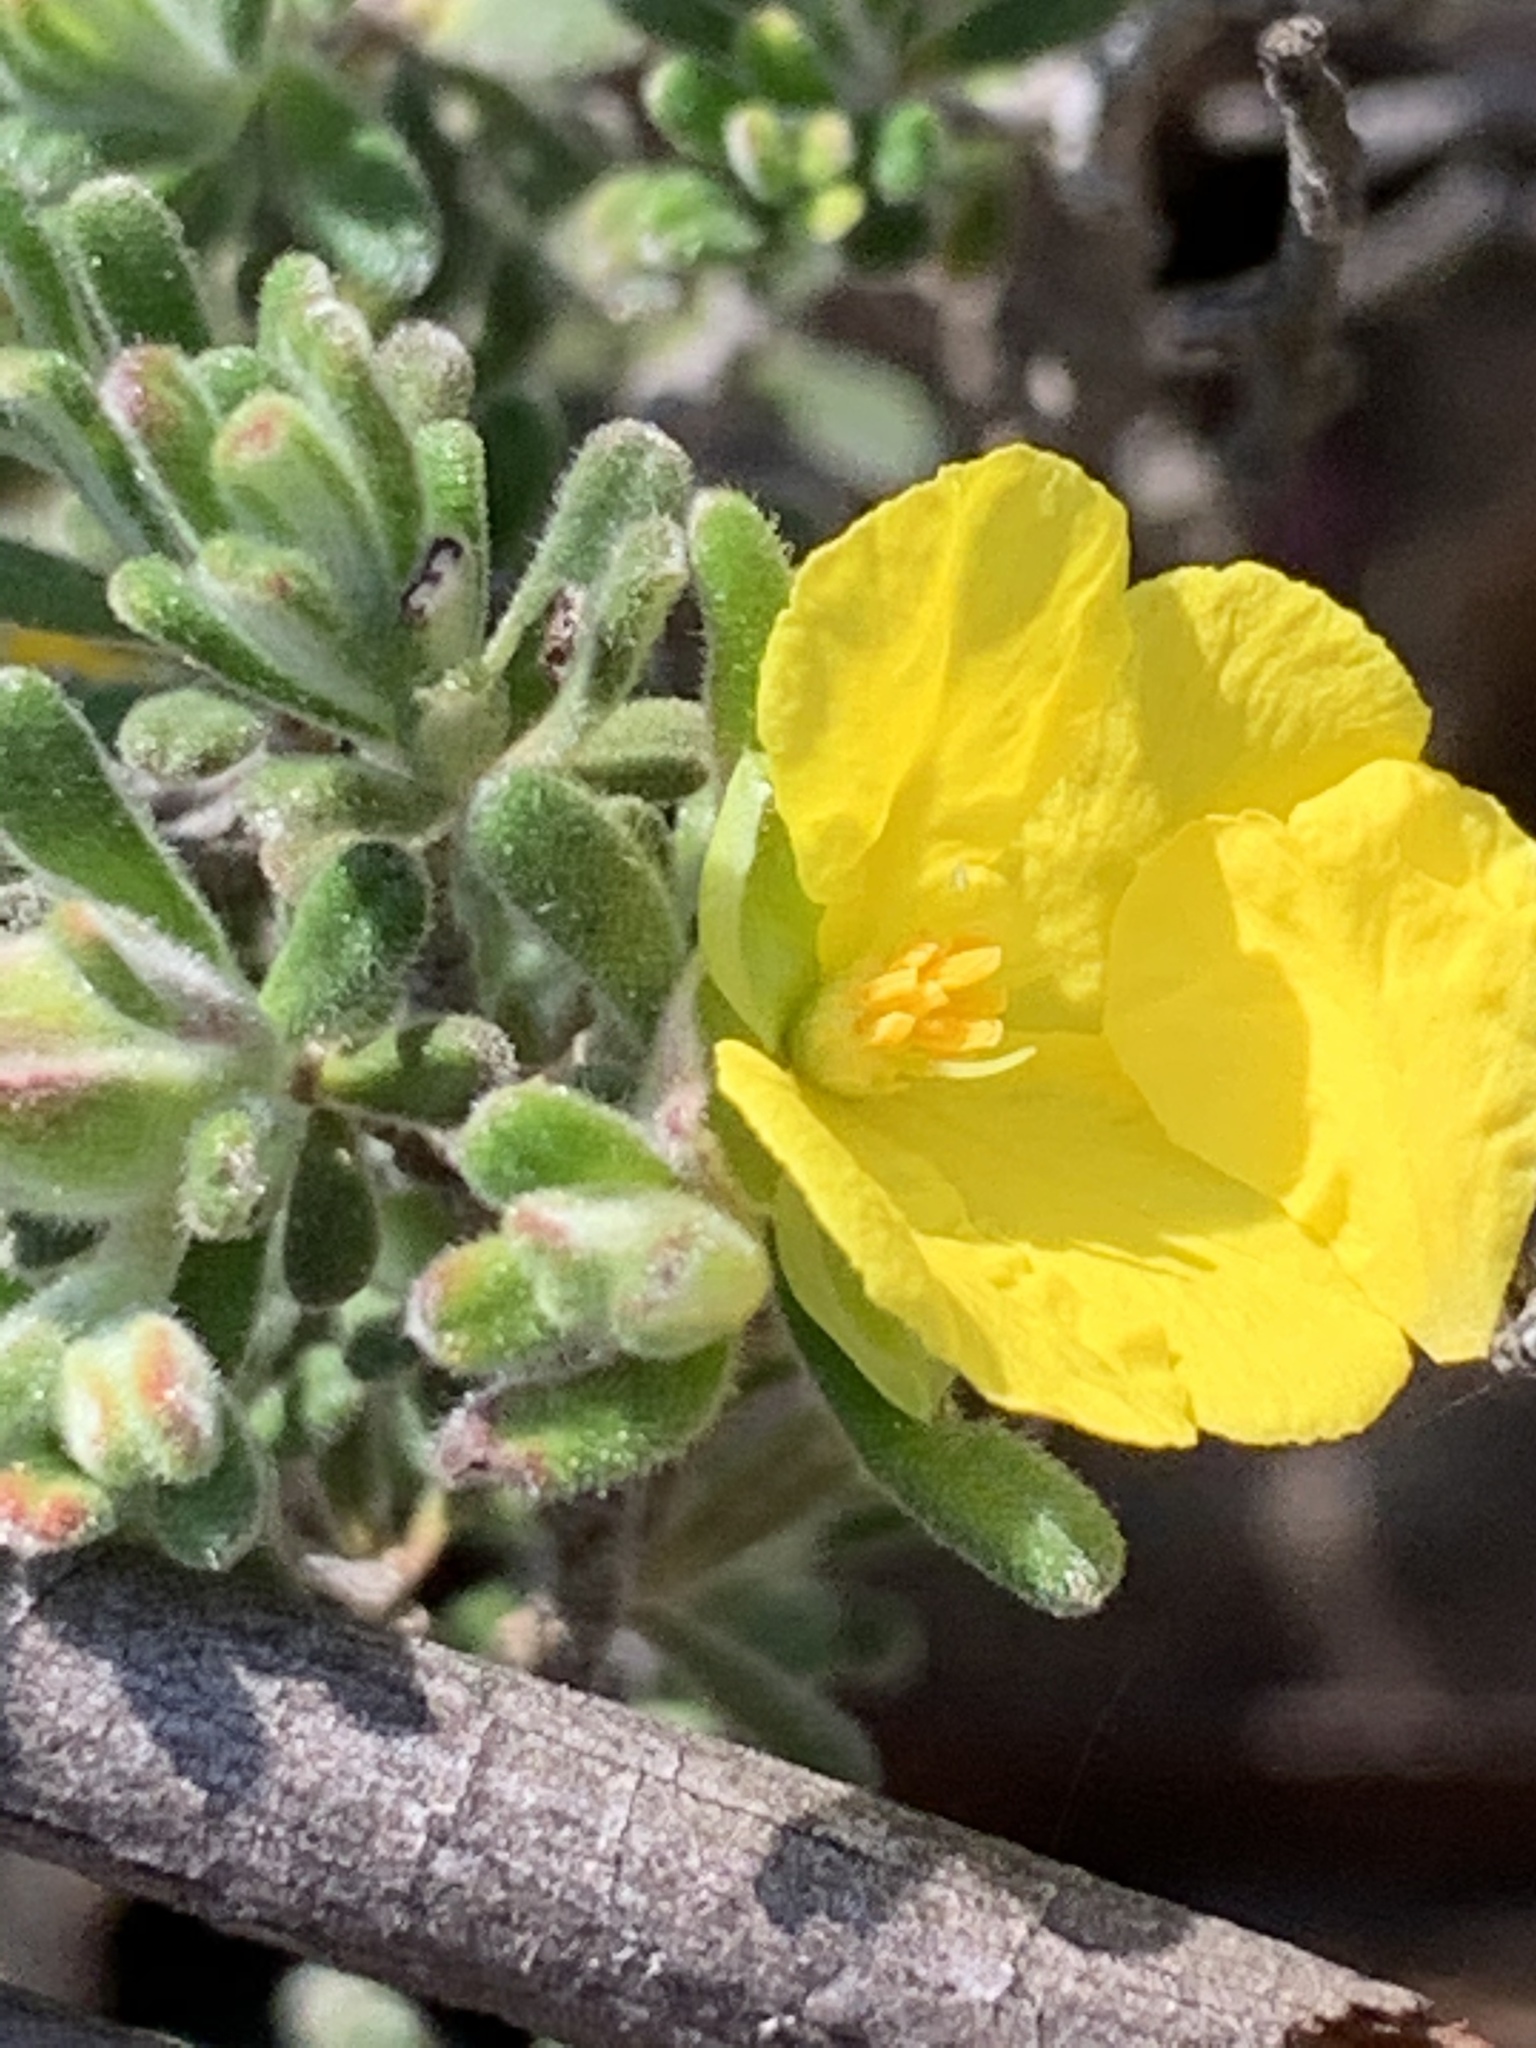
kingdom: Plantae
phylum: Tracheophyta
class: Magnoliopsida
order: Dilleniales
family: Dilleniaceae
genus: Hibbertia
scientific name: Hibbertia planifolia
